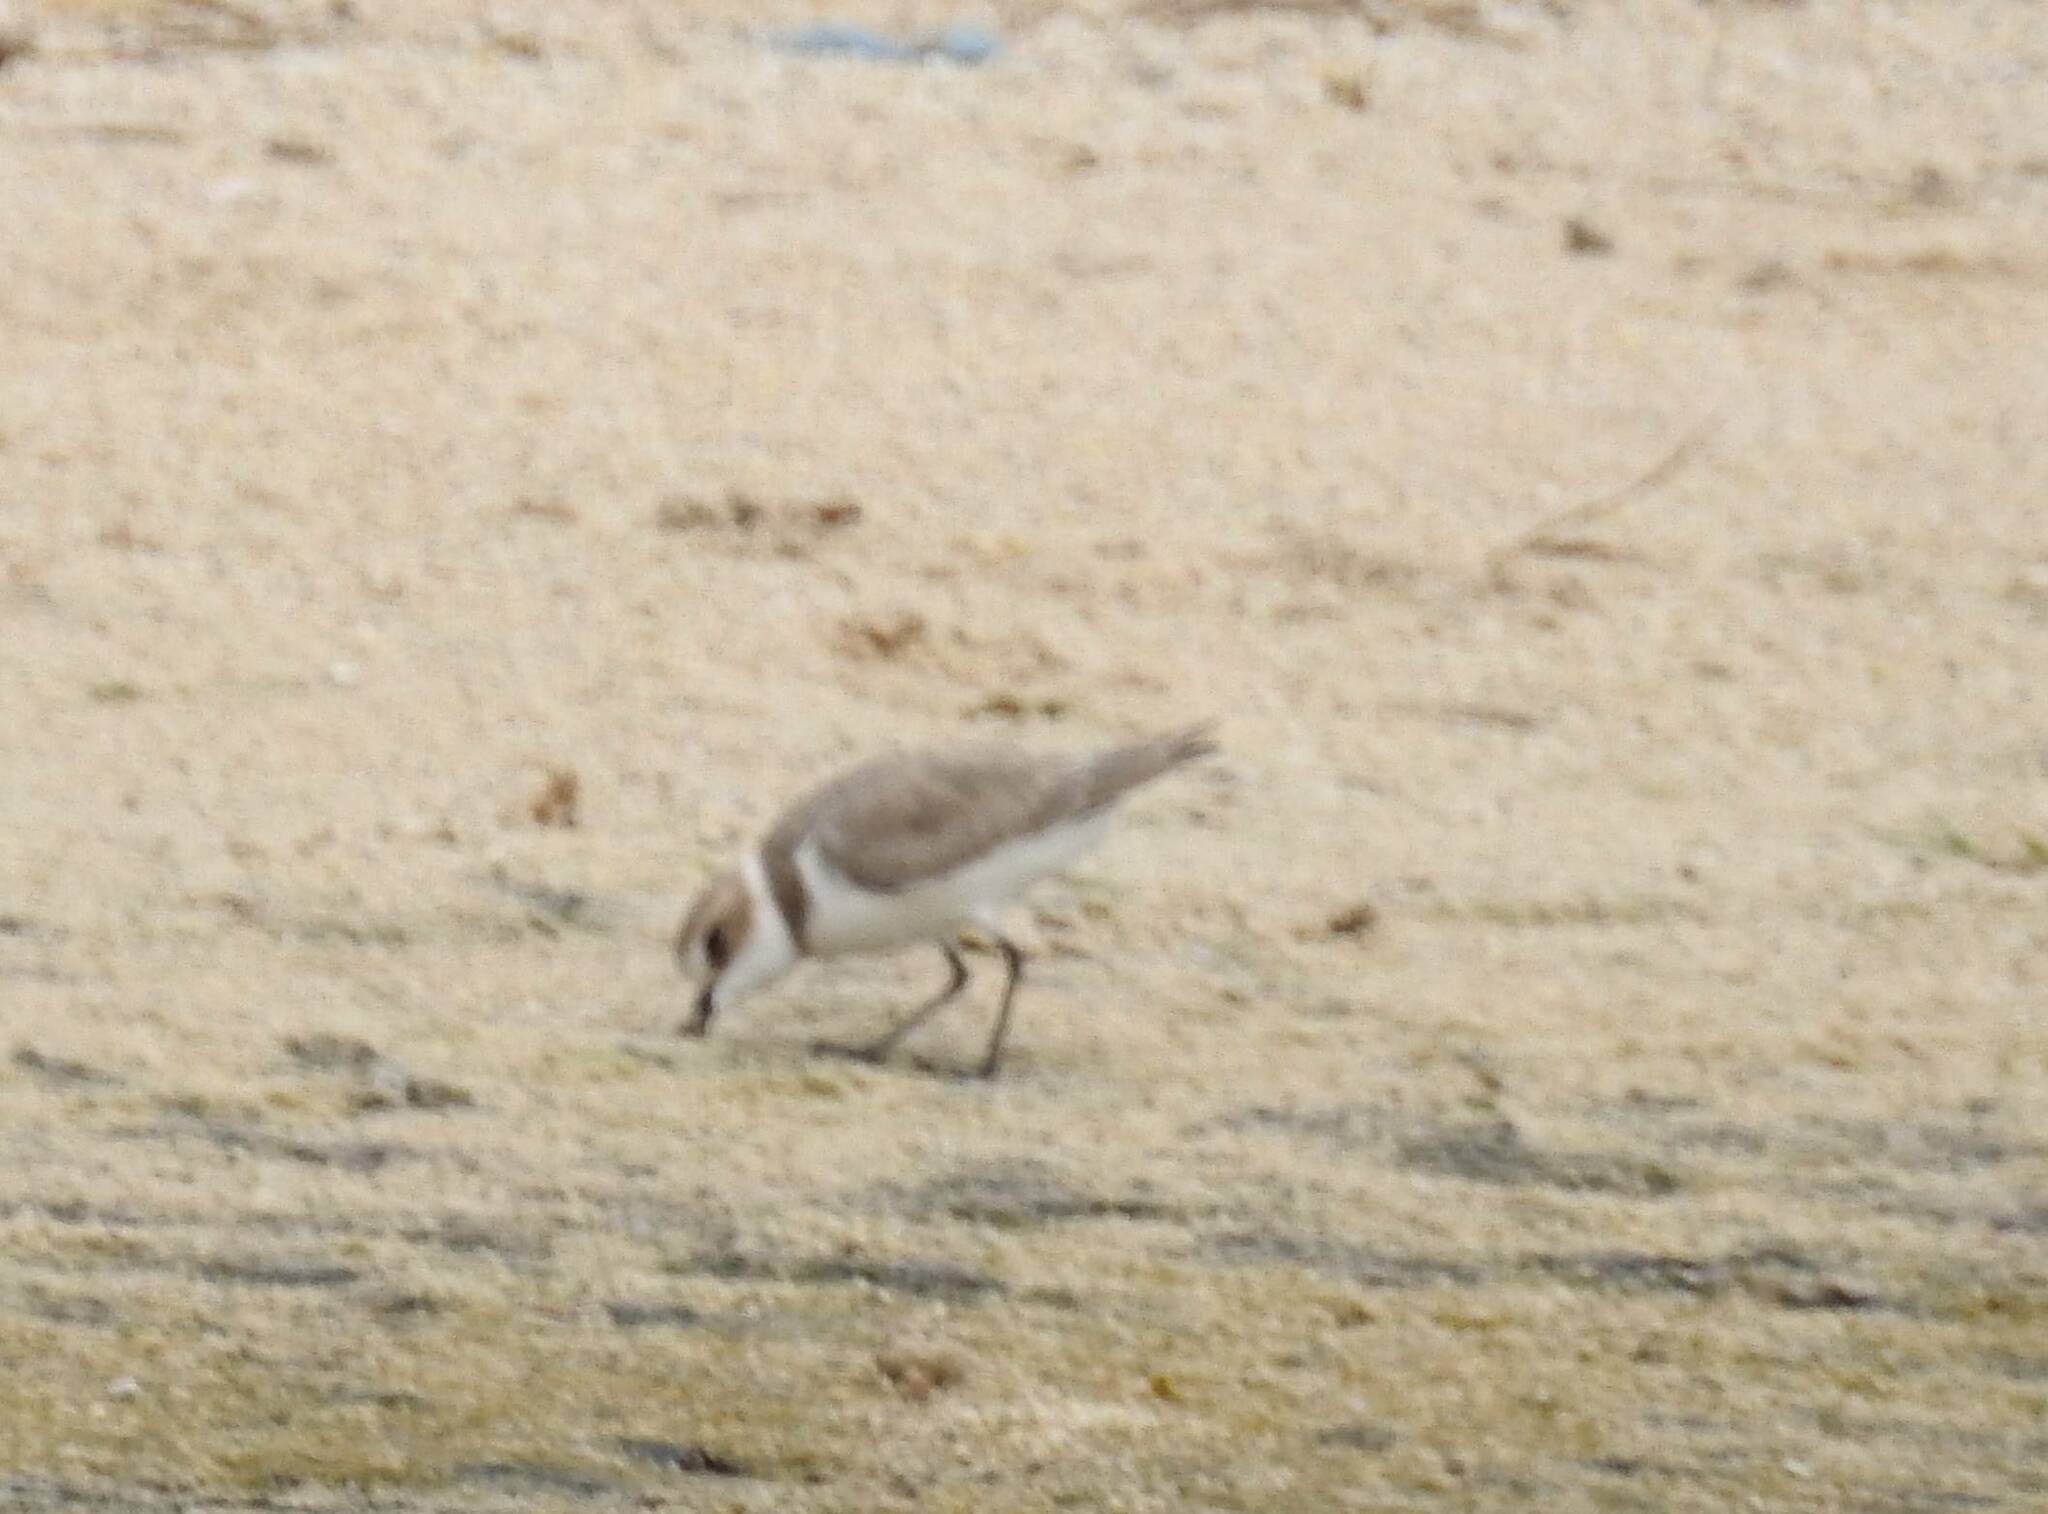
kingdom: Animalia
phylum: Chordata
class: Aves
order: Charadriiformes
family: Charadriidae
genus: Charadrius
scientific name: Charadrius alexandrinus
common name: Kentish plover
